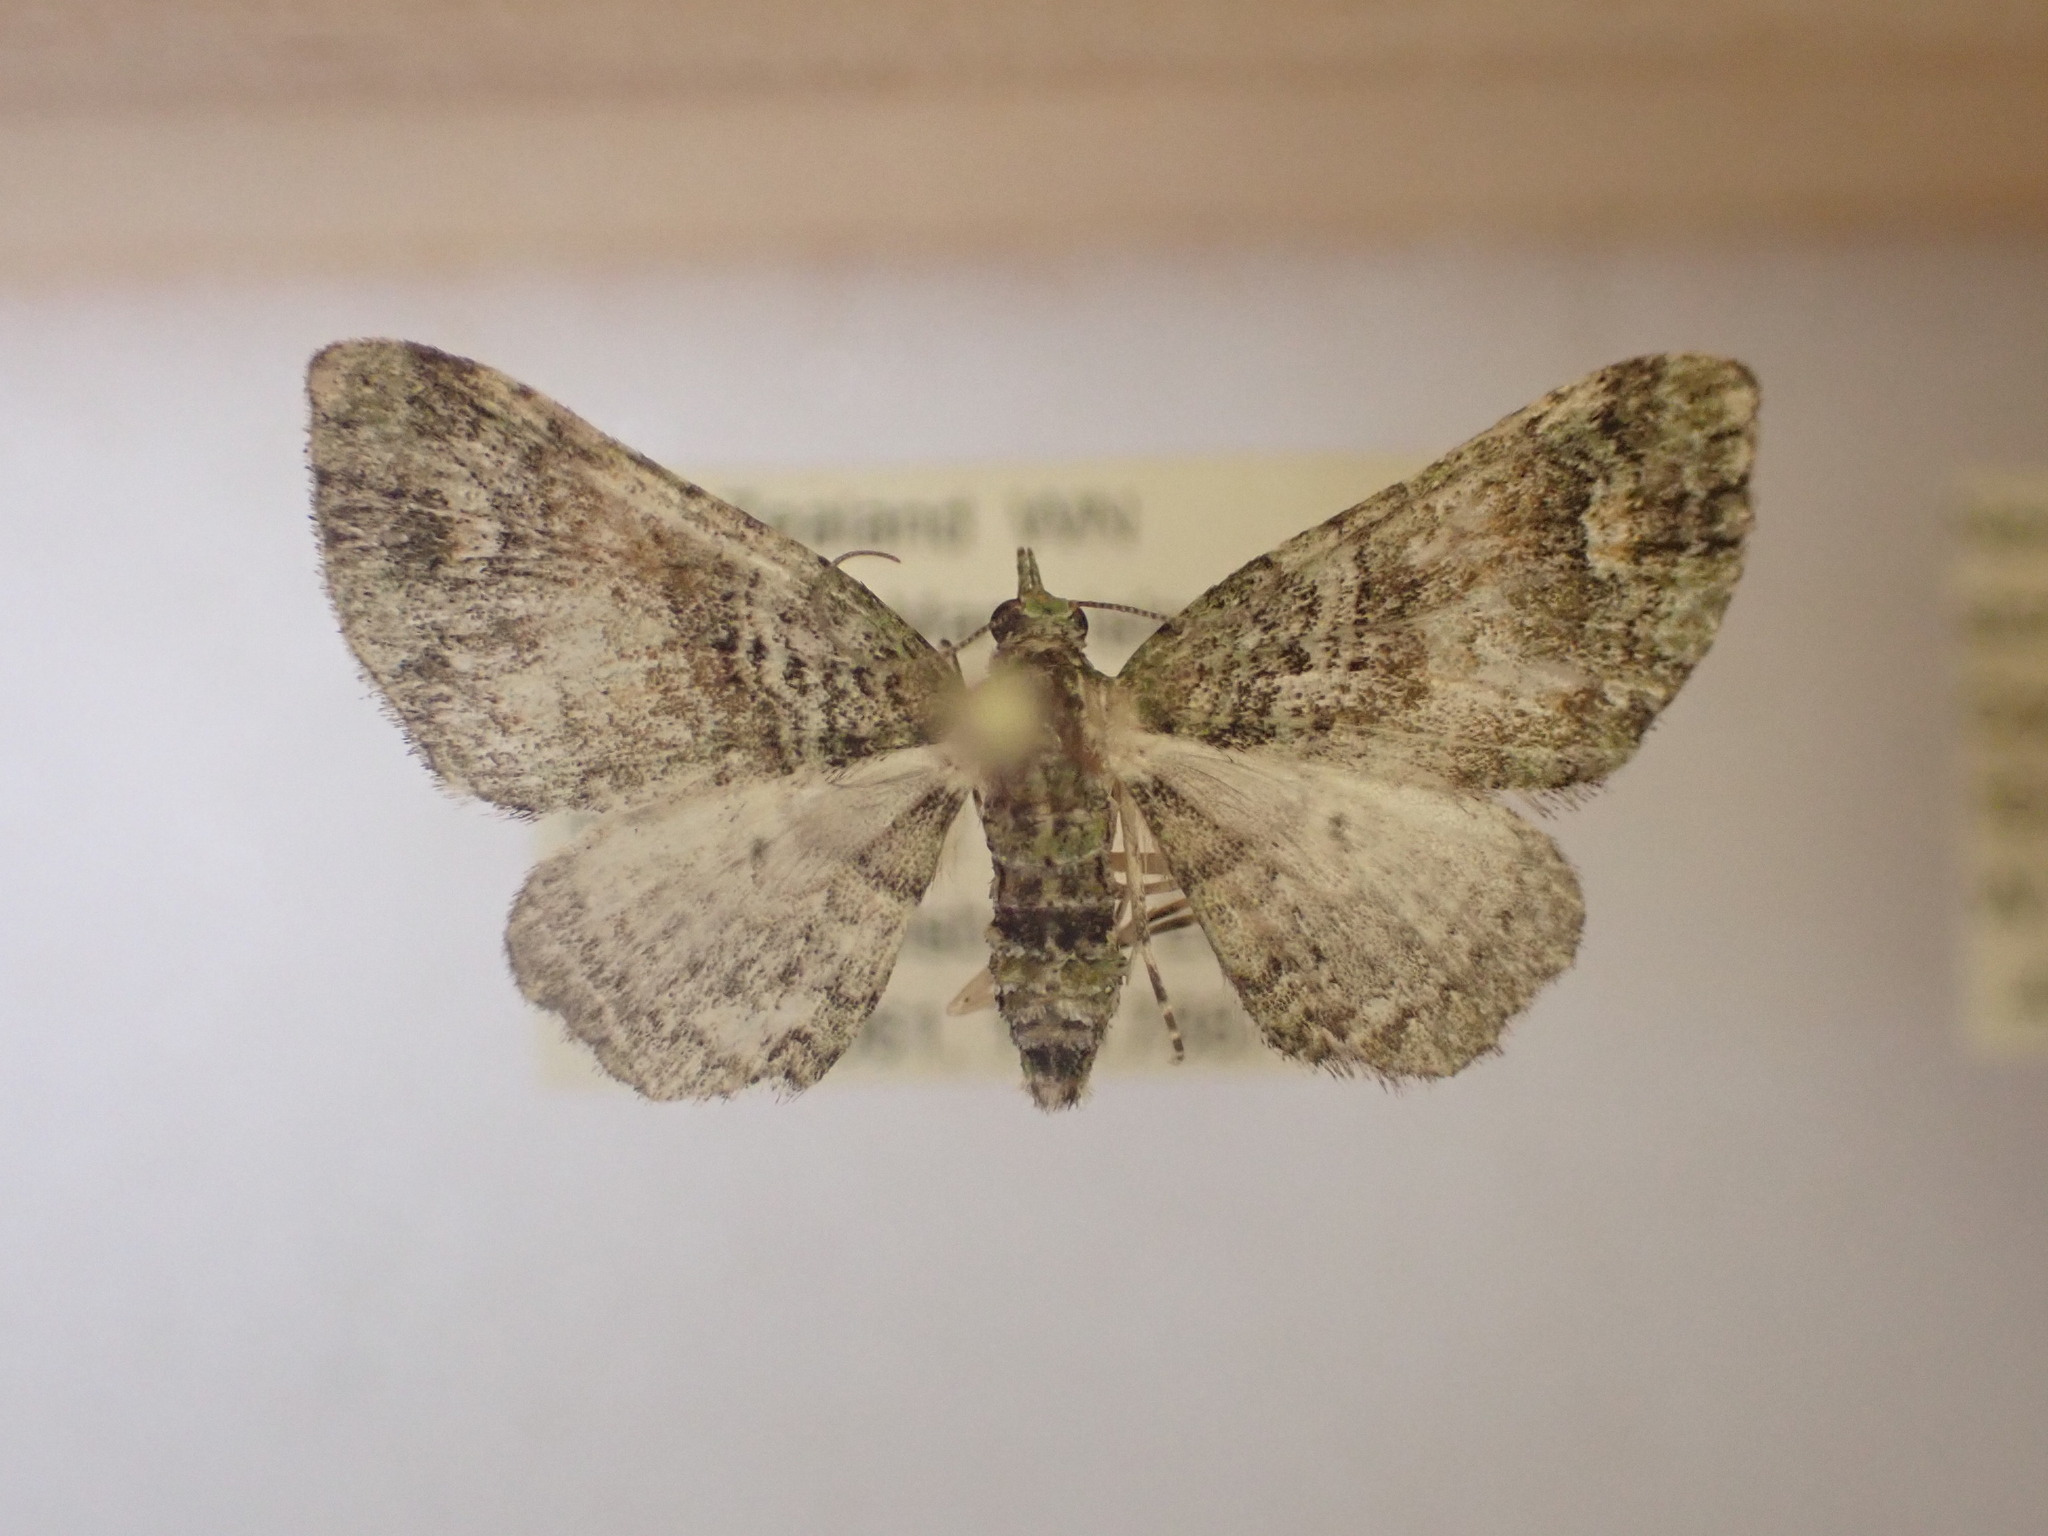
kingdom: Animalia
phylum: Arthropoda
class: Insecta
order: Lepidoptera
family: Geometridae
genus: Idaea
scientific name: Idaea mutanda
